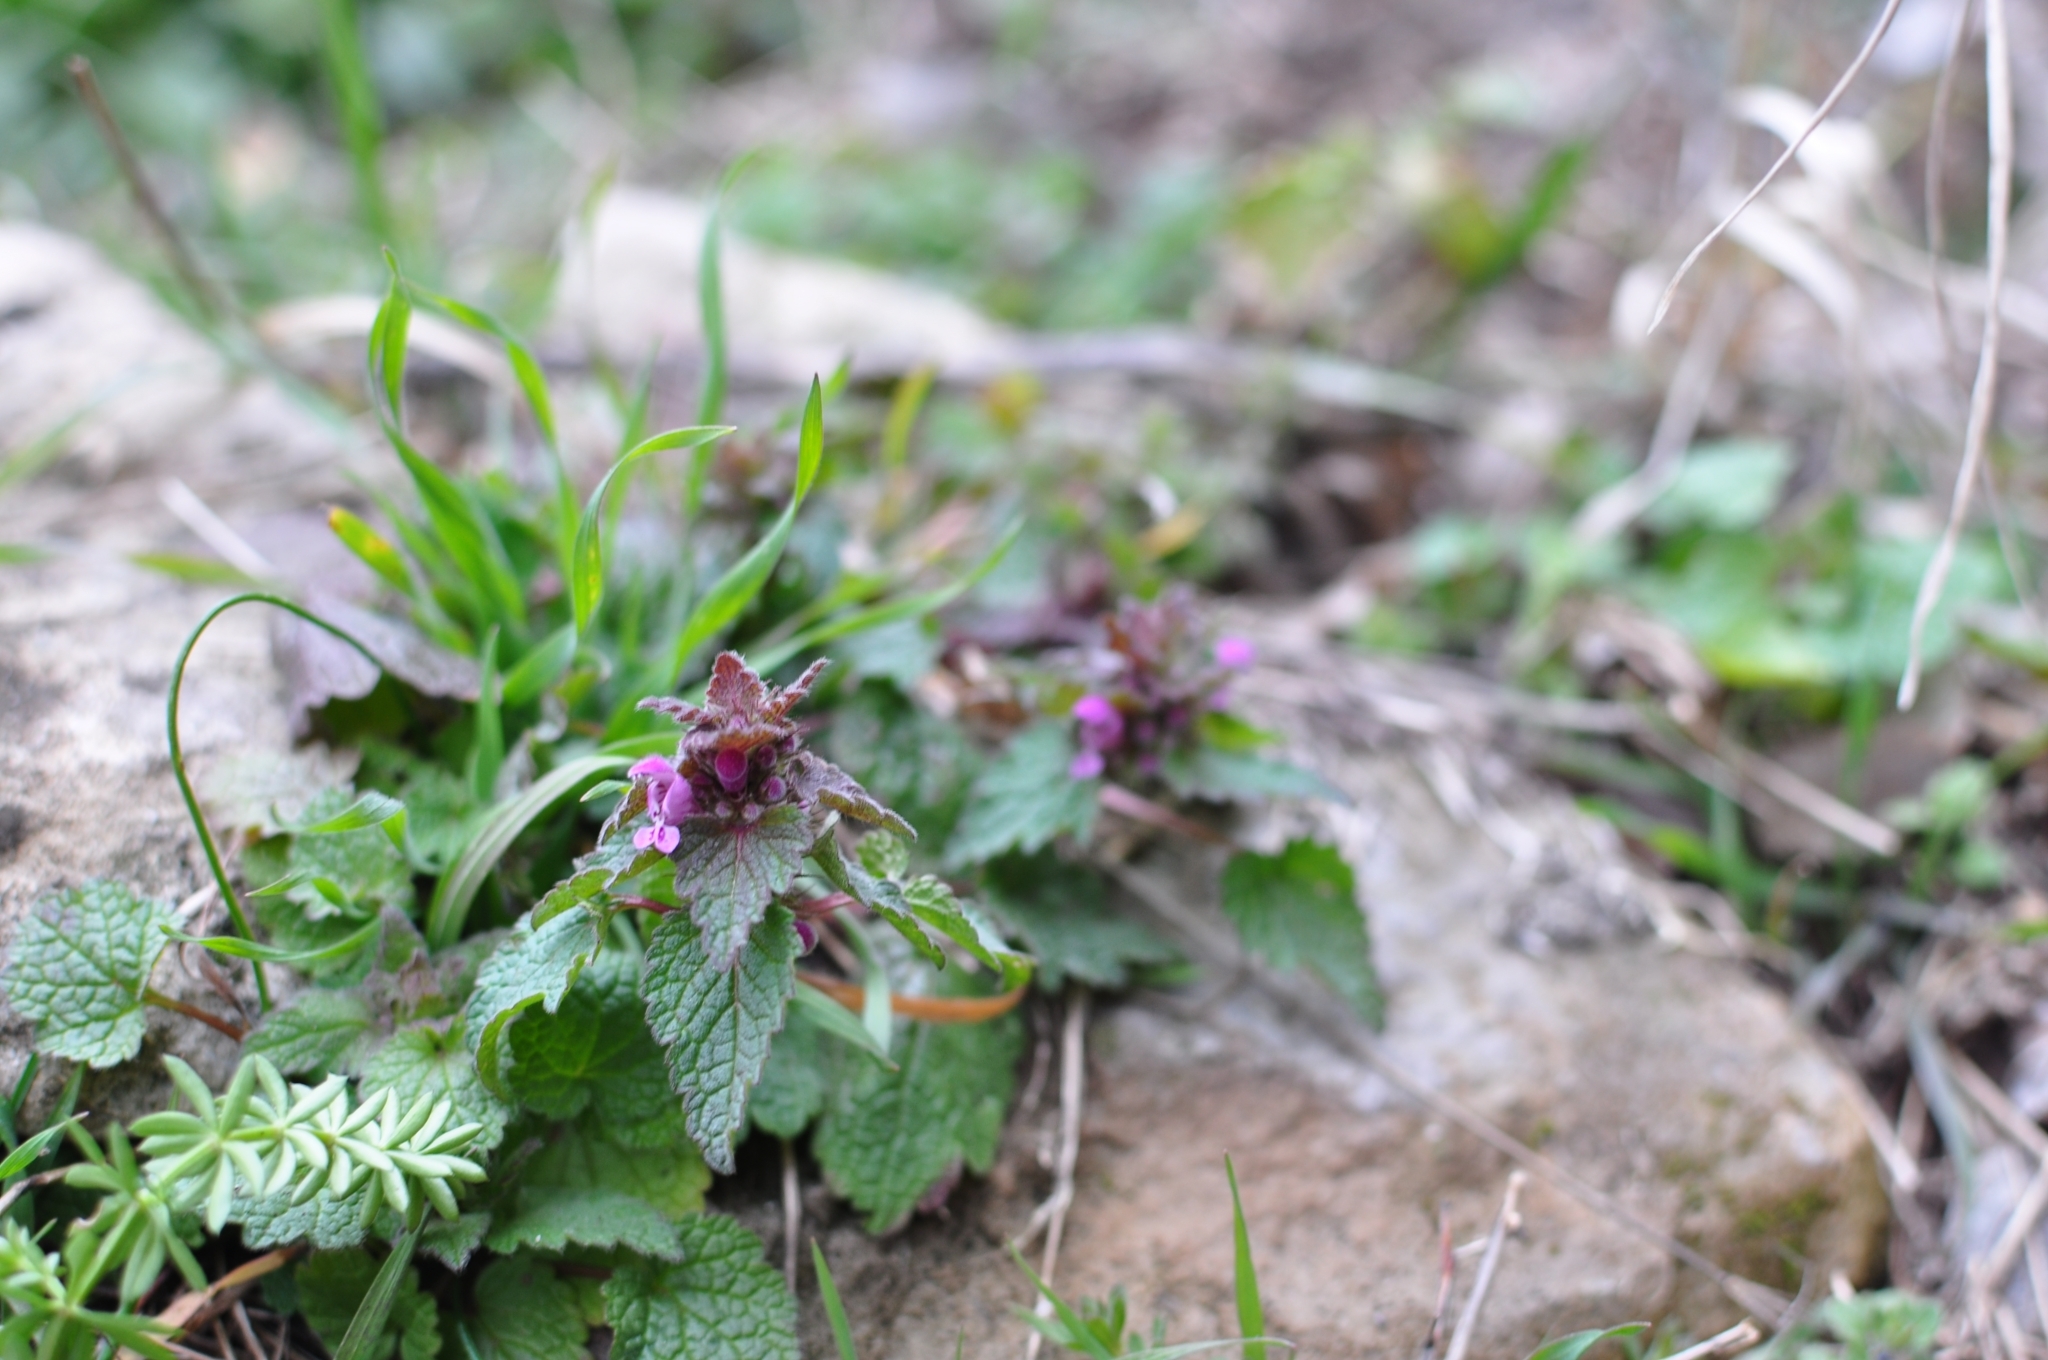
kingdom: Plantae
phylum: Tracheophyta
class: Magnoliopsida
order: Lamiales
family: Lamiaceae
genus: Lamium
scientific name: Lamium purpureum
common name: Red dead-nettle
